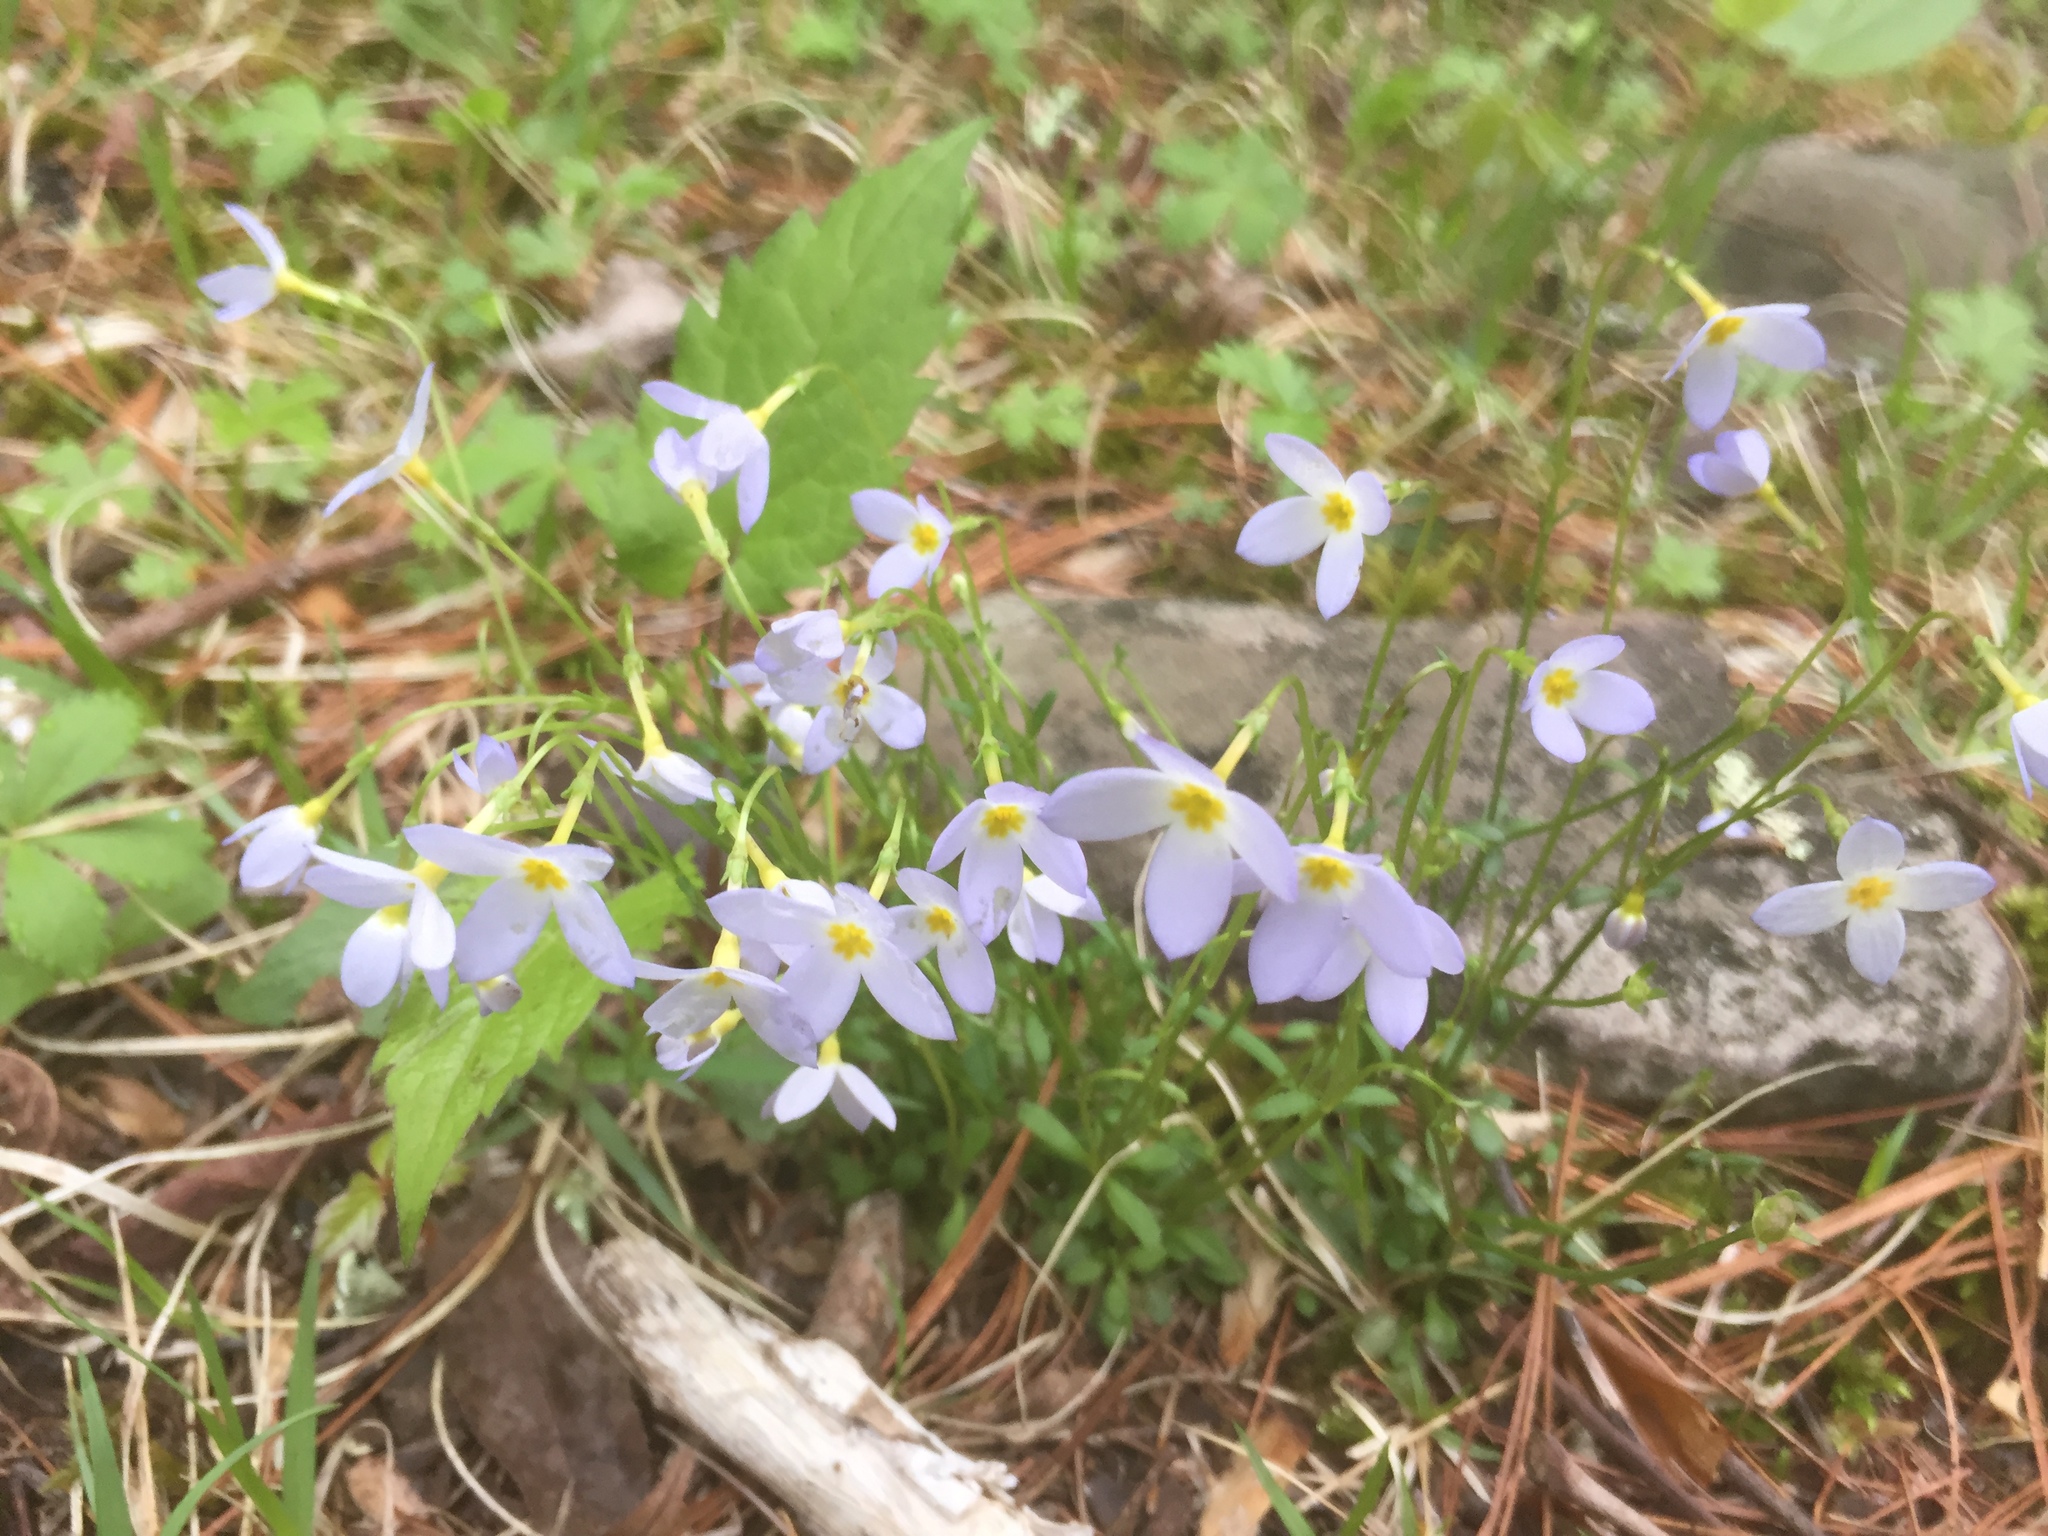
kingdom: Plantae
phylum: Tracheophyta
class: Magnoliopsida
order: Gentianales
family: Rubiaceae
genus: Houstonia
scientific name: Houstonia caerulea
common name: Bluets
